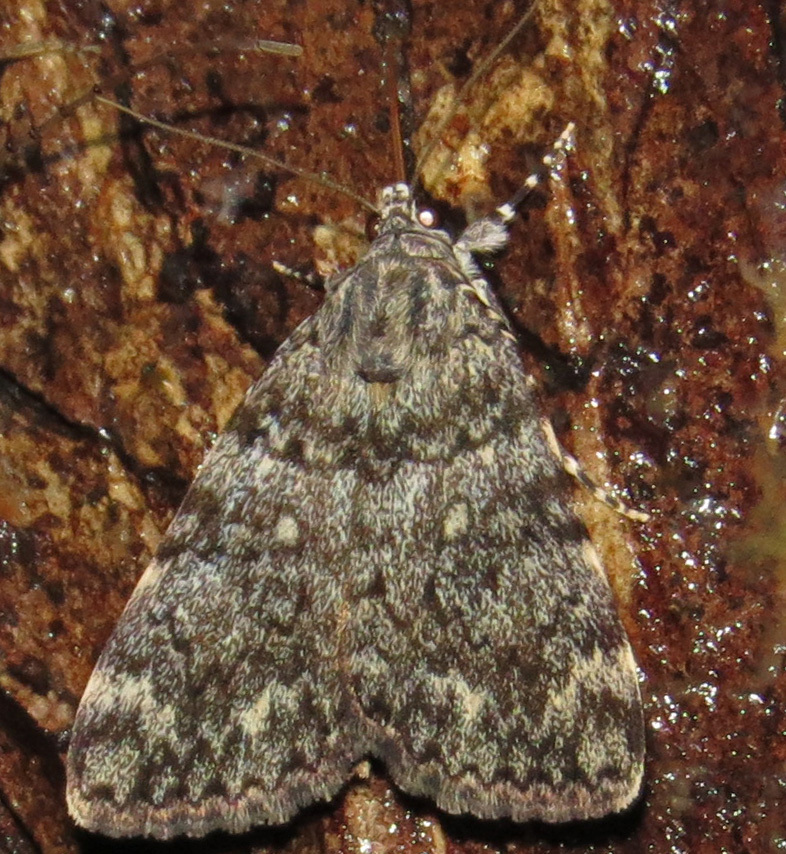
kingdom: Animalia
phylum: Arthropoda
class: Insecta
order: Lepidoptera
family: Erebidae
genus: Catocala
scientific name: Catocala lineella
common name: Little lined underwing
